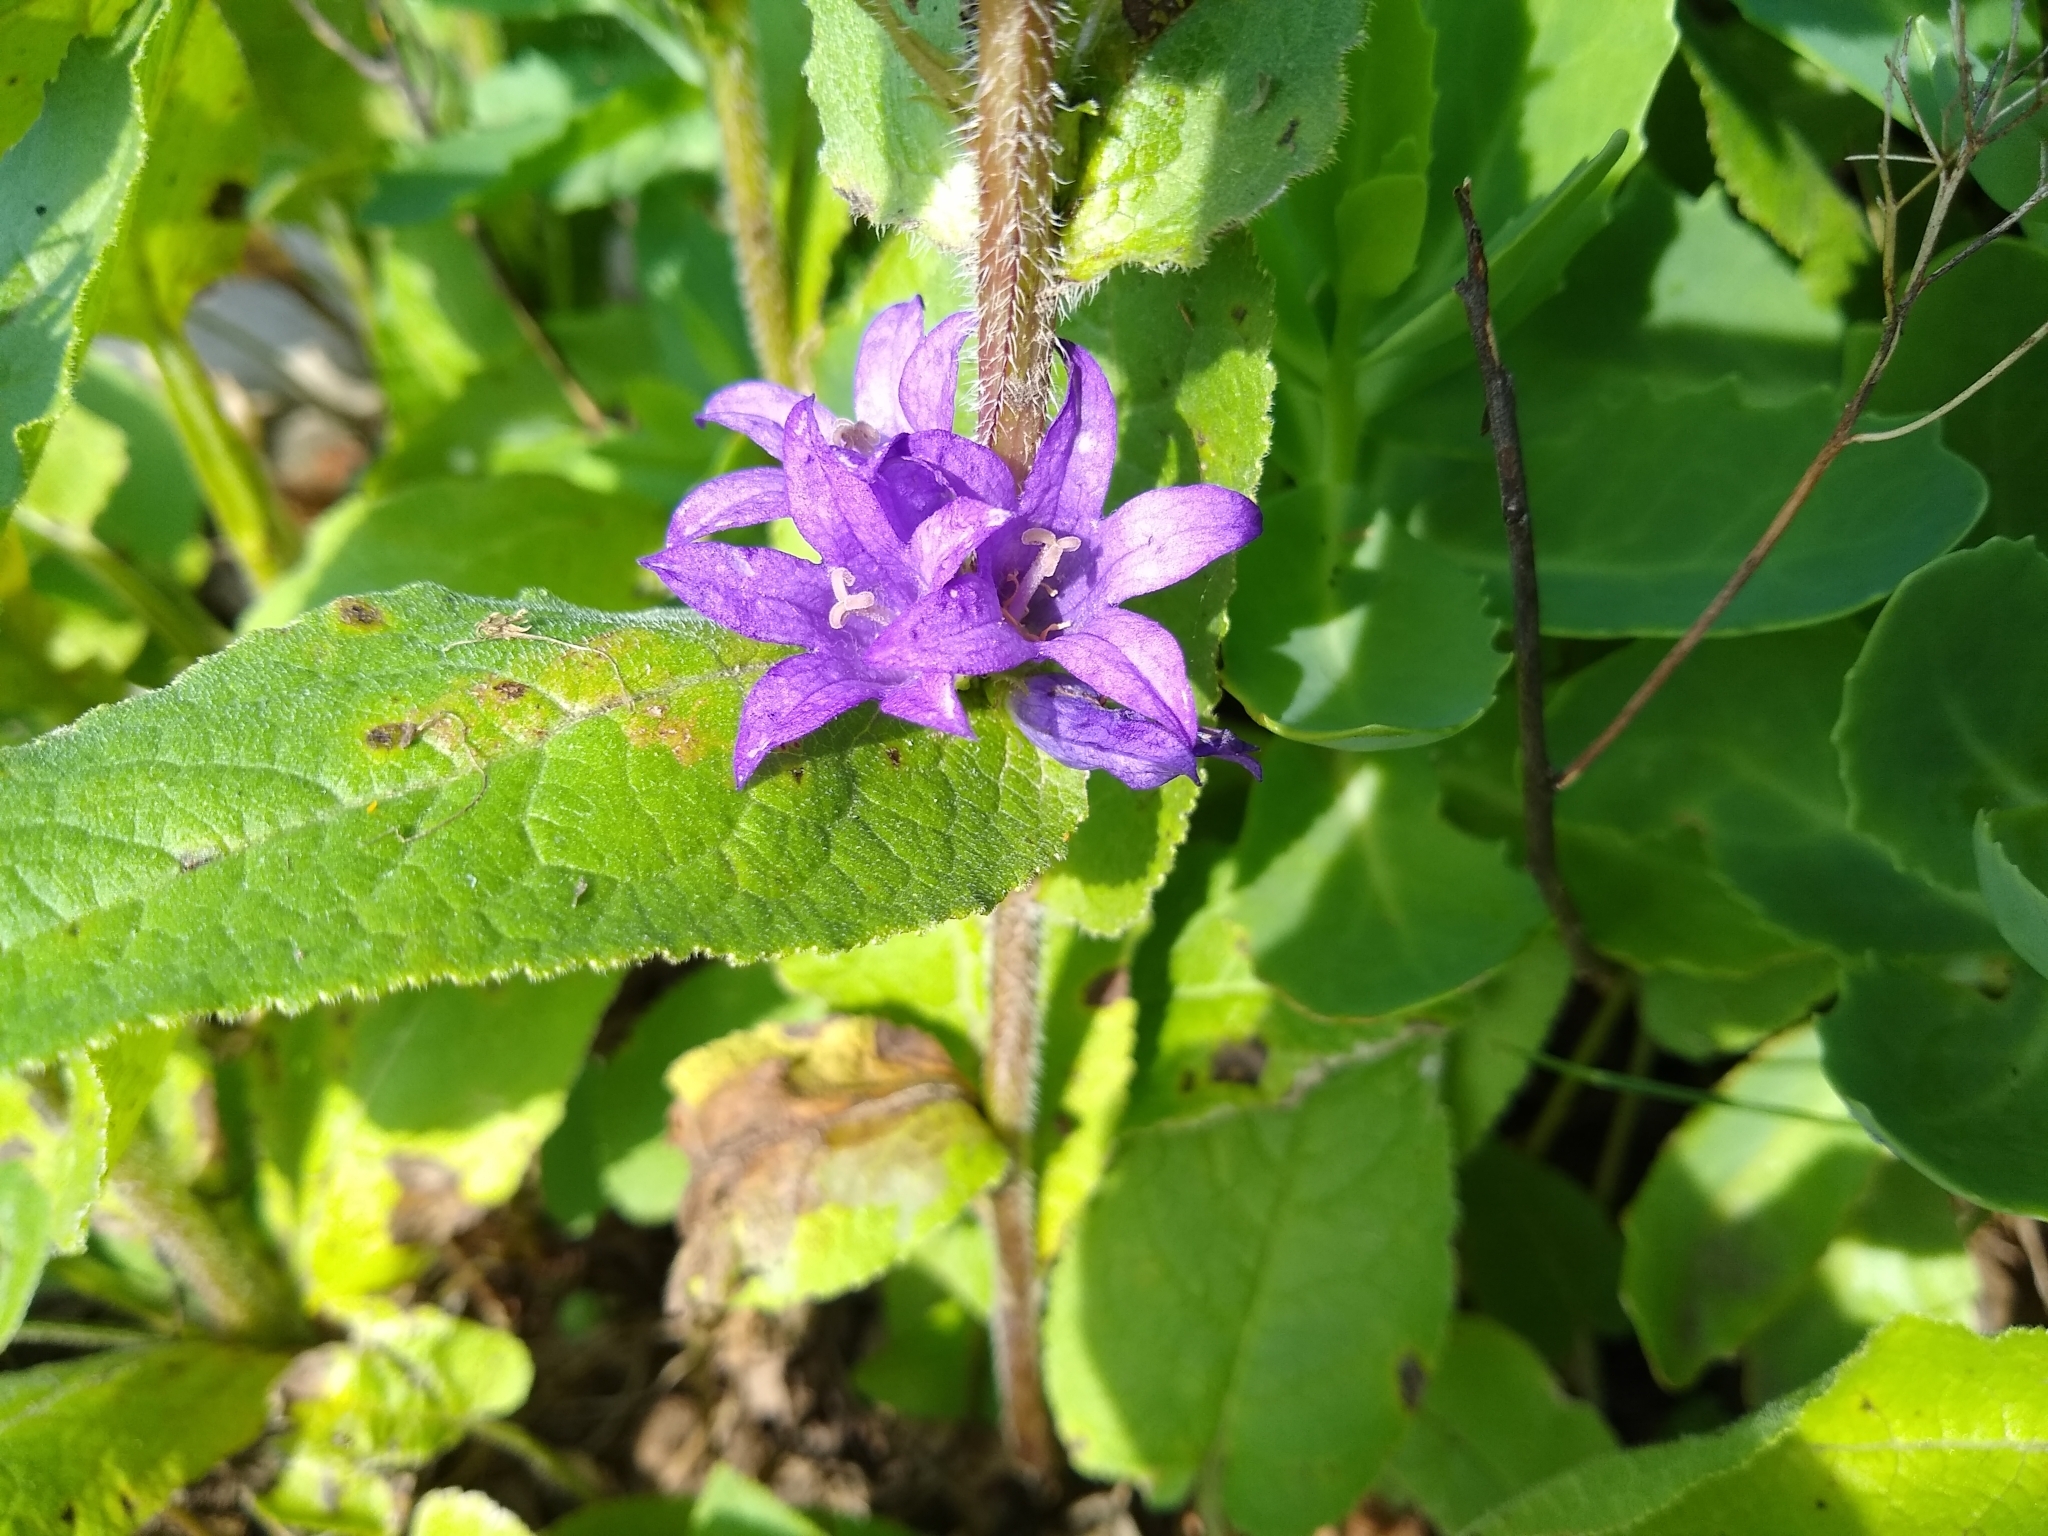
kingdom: Plantae
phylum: Tracheophyta
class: Magnoliopsida
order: Asterales
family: Campanulaceae
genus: Campanula
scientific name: Campanula glomerata
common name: Clustered bellflower
